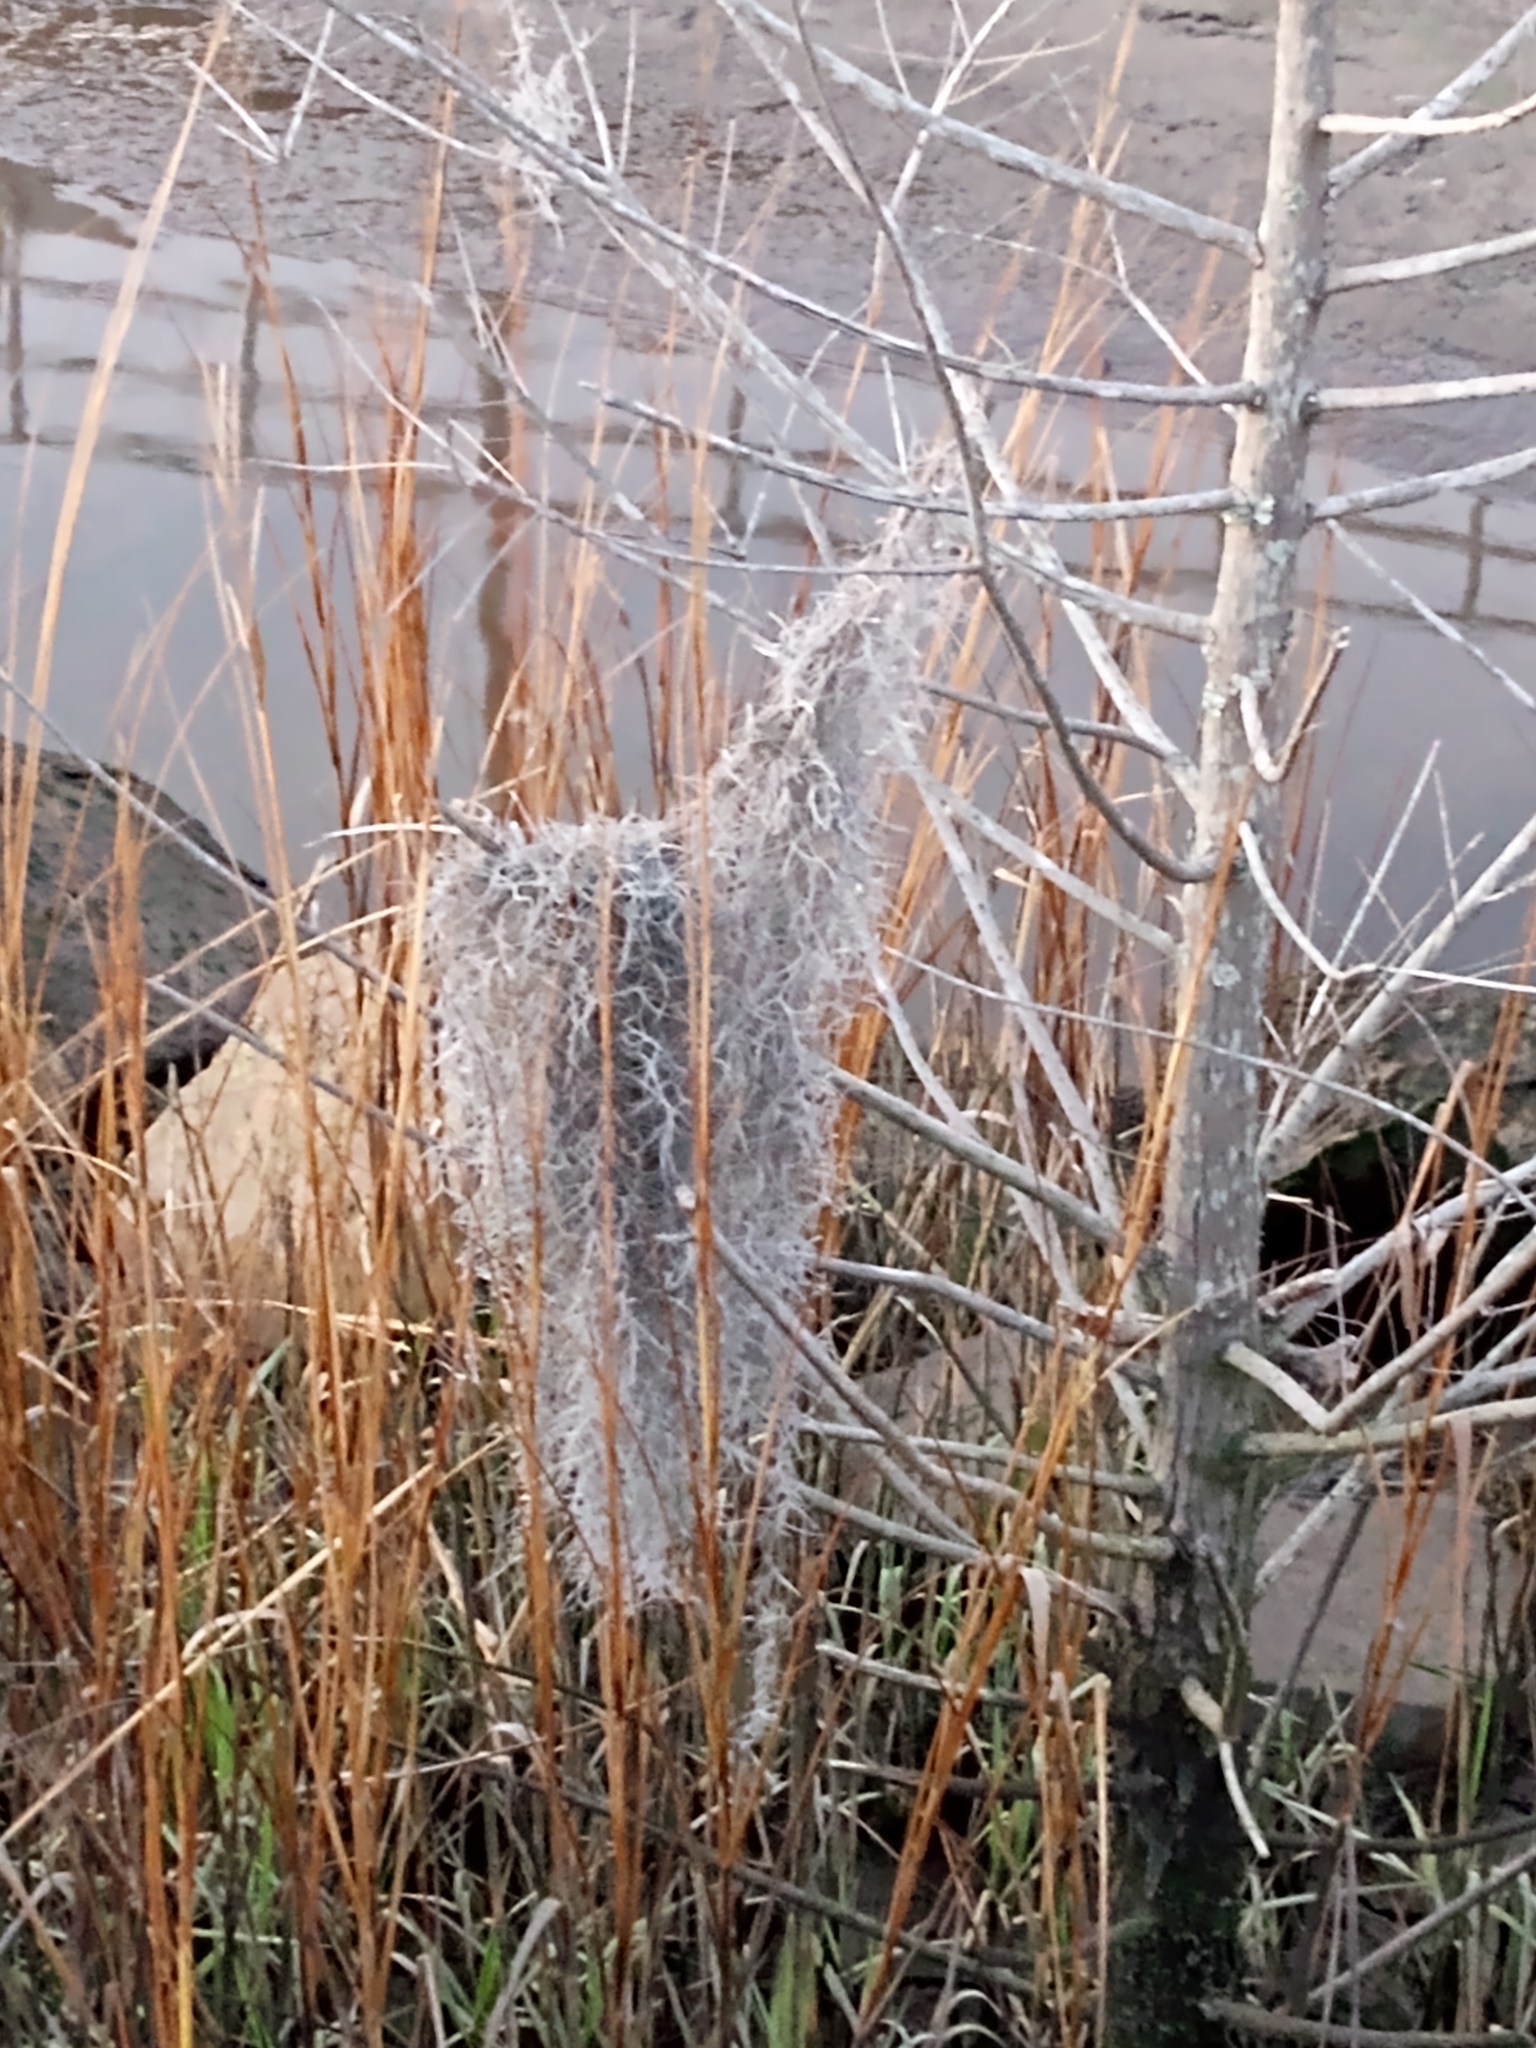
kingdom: Plantae
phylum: Tracheophyta
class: Liliopsida
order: Poales
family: Bromeliaceae
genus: Tillandsia
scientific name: Tillandsia usneoides
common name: Spanish moss
